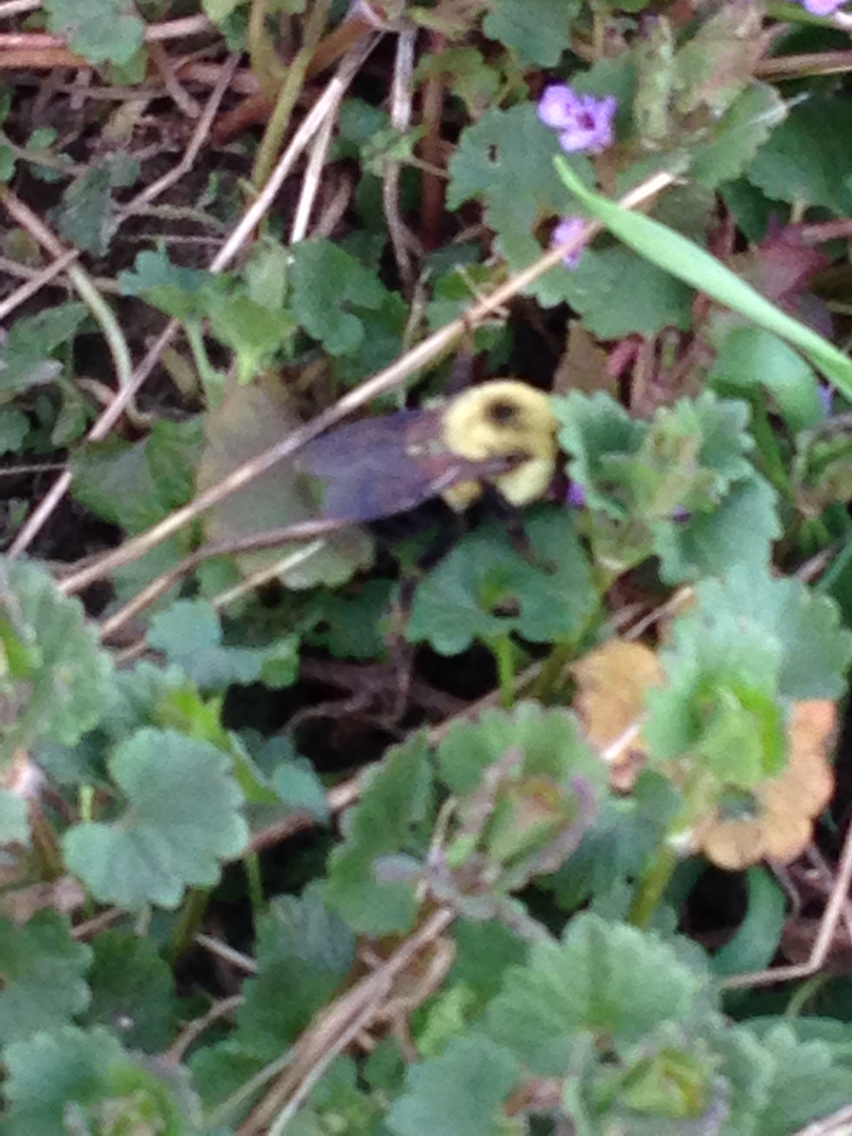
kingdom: Animalia
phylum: Arthropoda
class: Insecta
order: Hymenoptera
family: Apidae
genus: Bombus
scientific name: Bombus bimaculatus
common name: Two-spotted bumble bee
